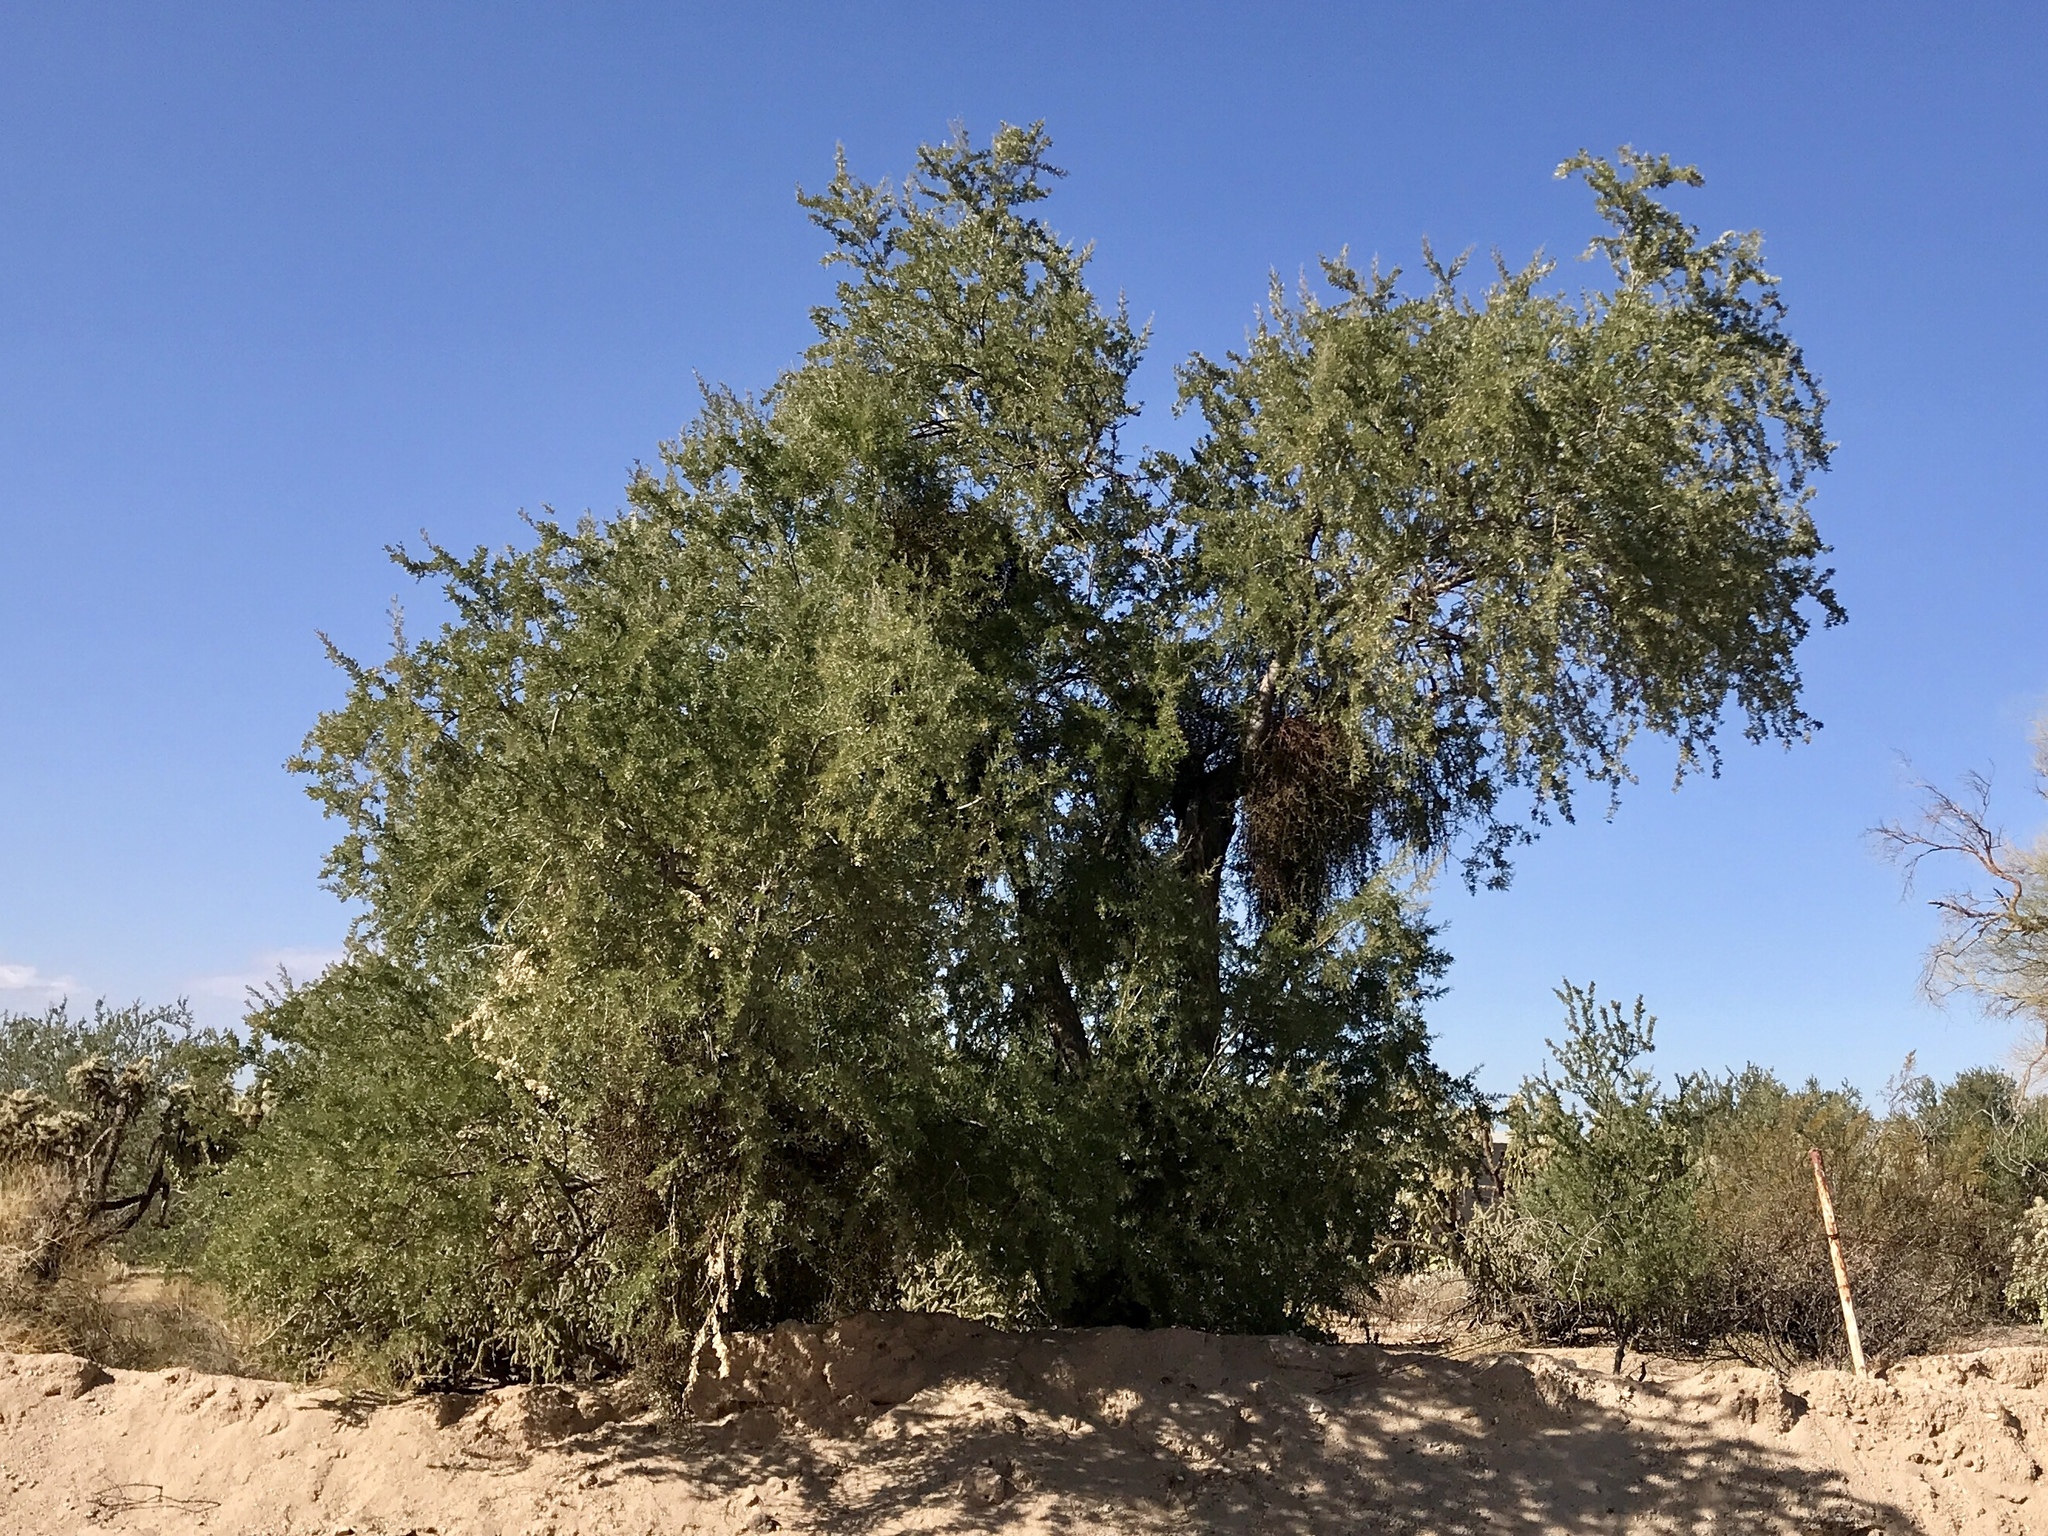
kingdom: Plantae
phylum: Tracheophyta
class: Magnoliopsida
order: Fabales
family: Fabaceae
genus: Olneya
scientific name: Olneya tesota
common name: Desert ironwood
